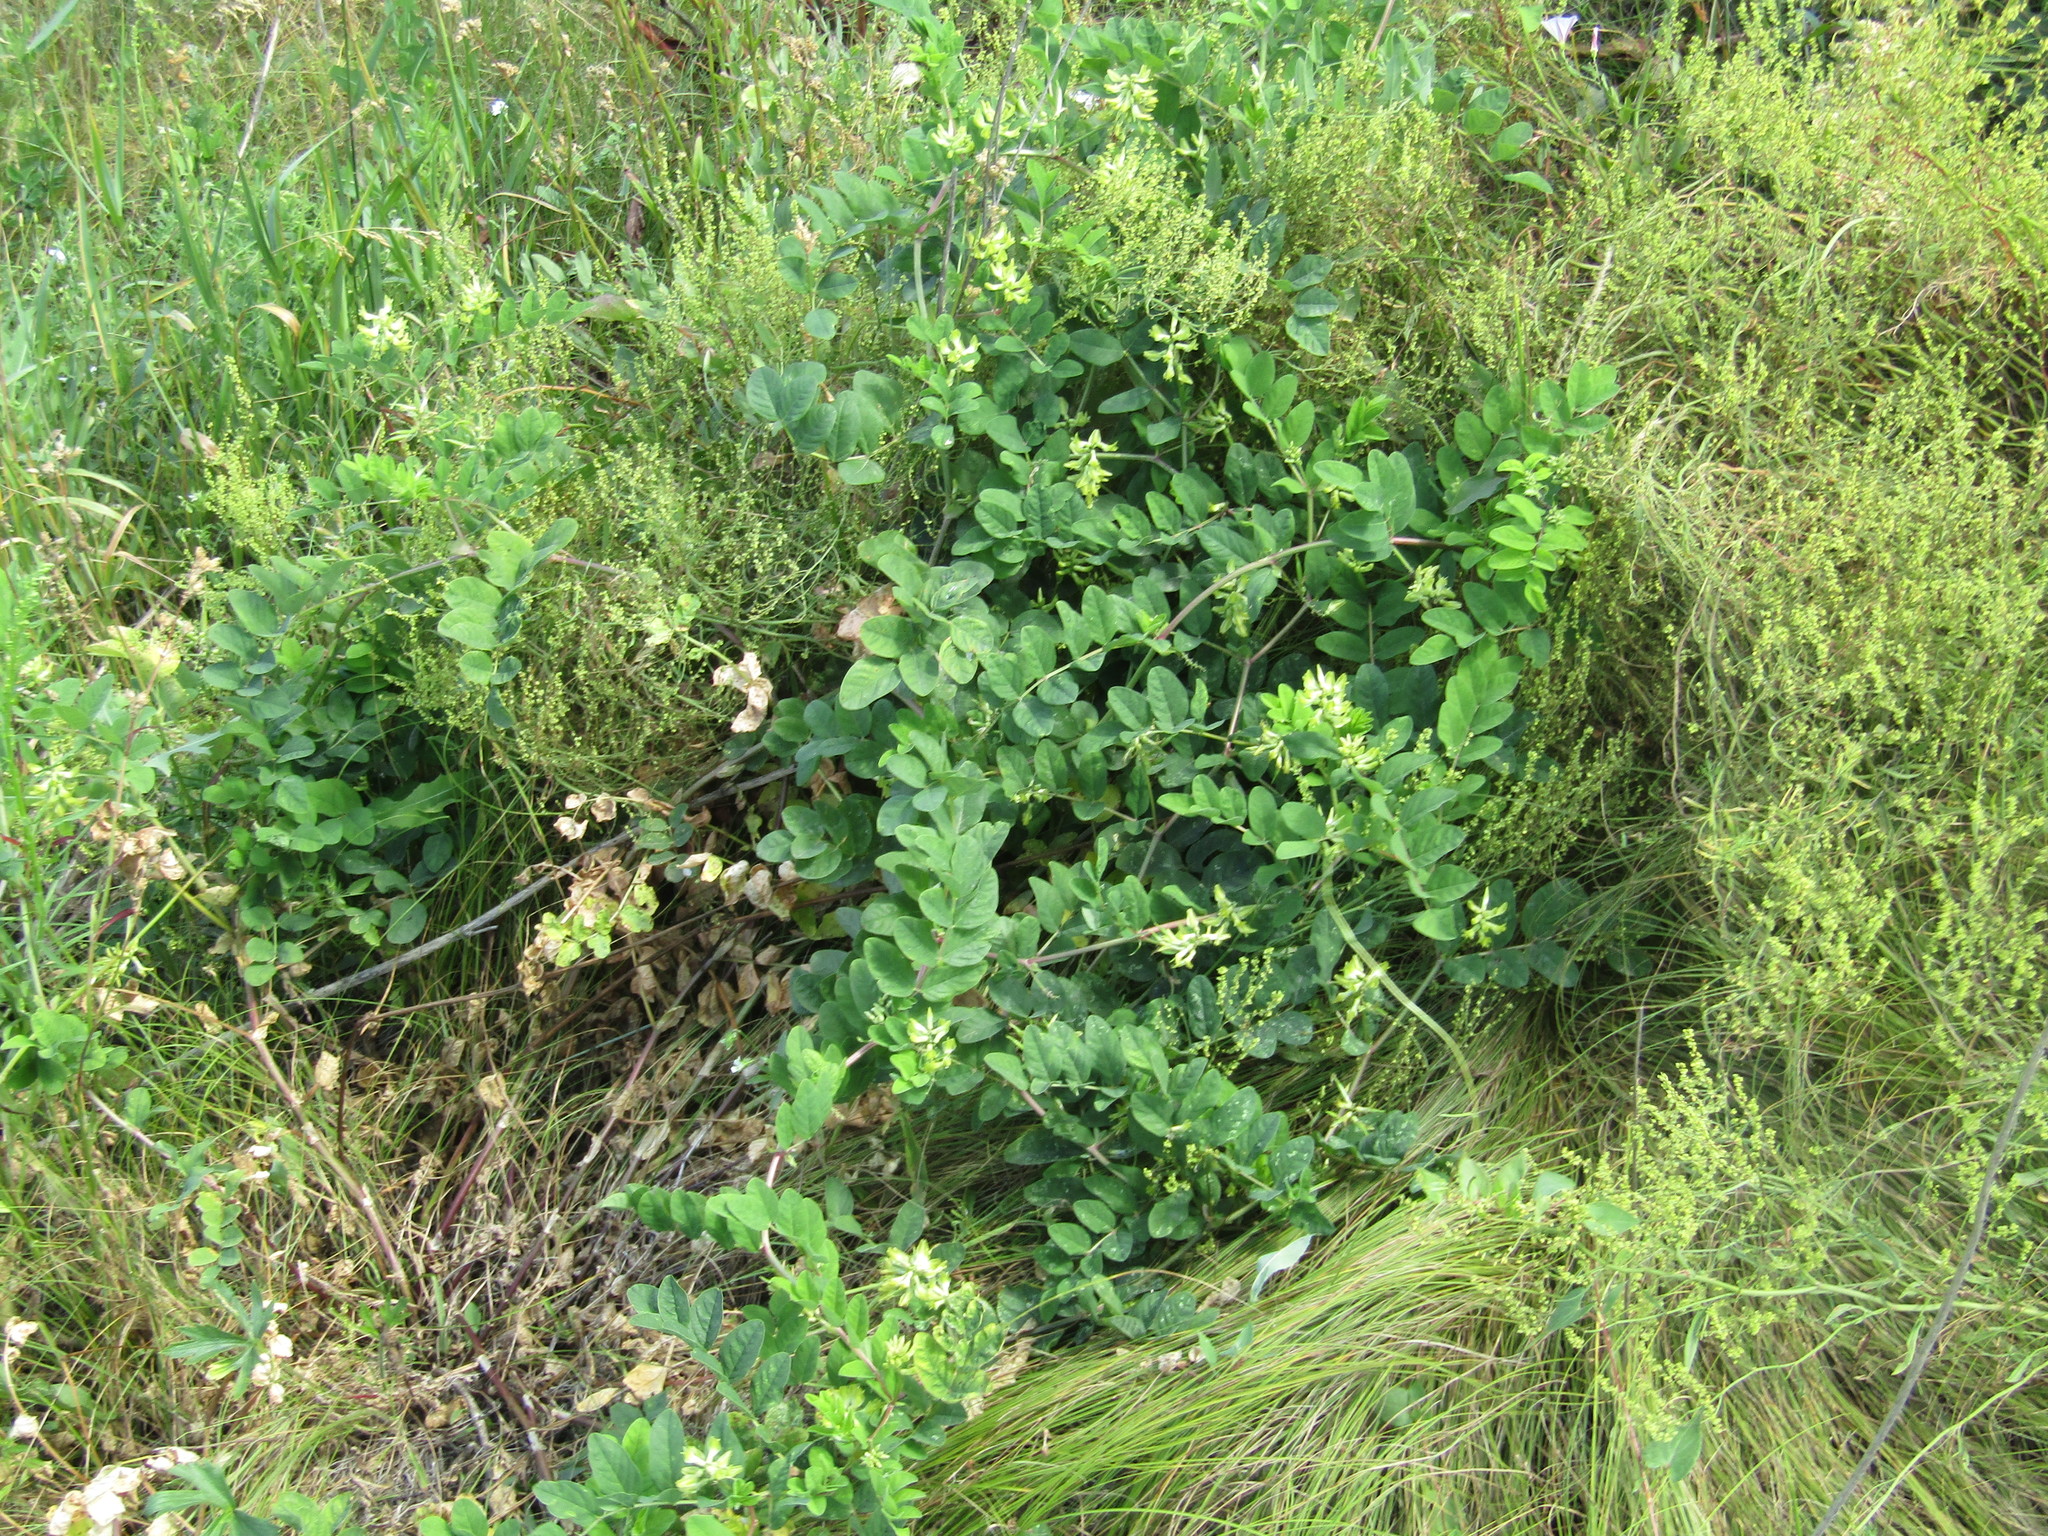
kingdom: Plantae
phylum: Tracheophyta
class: Magnoliopsida
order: Fabales
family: Fabaceae
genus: Astragalus
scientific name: Astragalus glycyphyllos
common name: Wild liquorice
